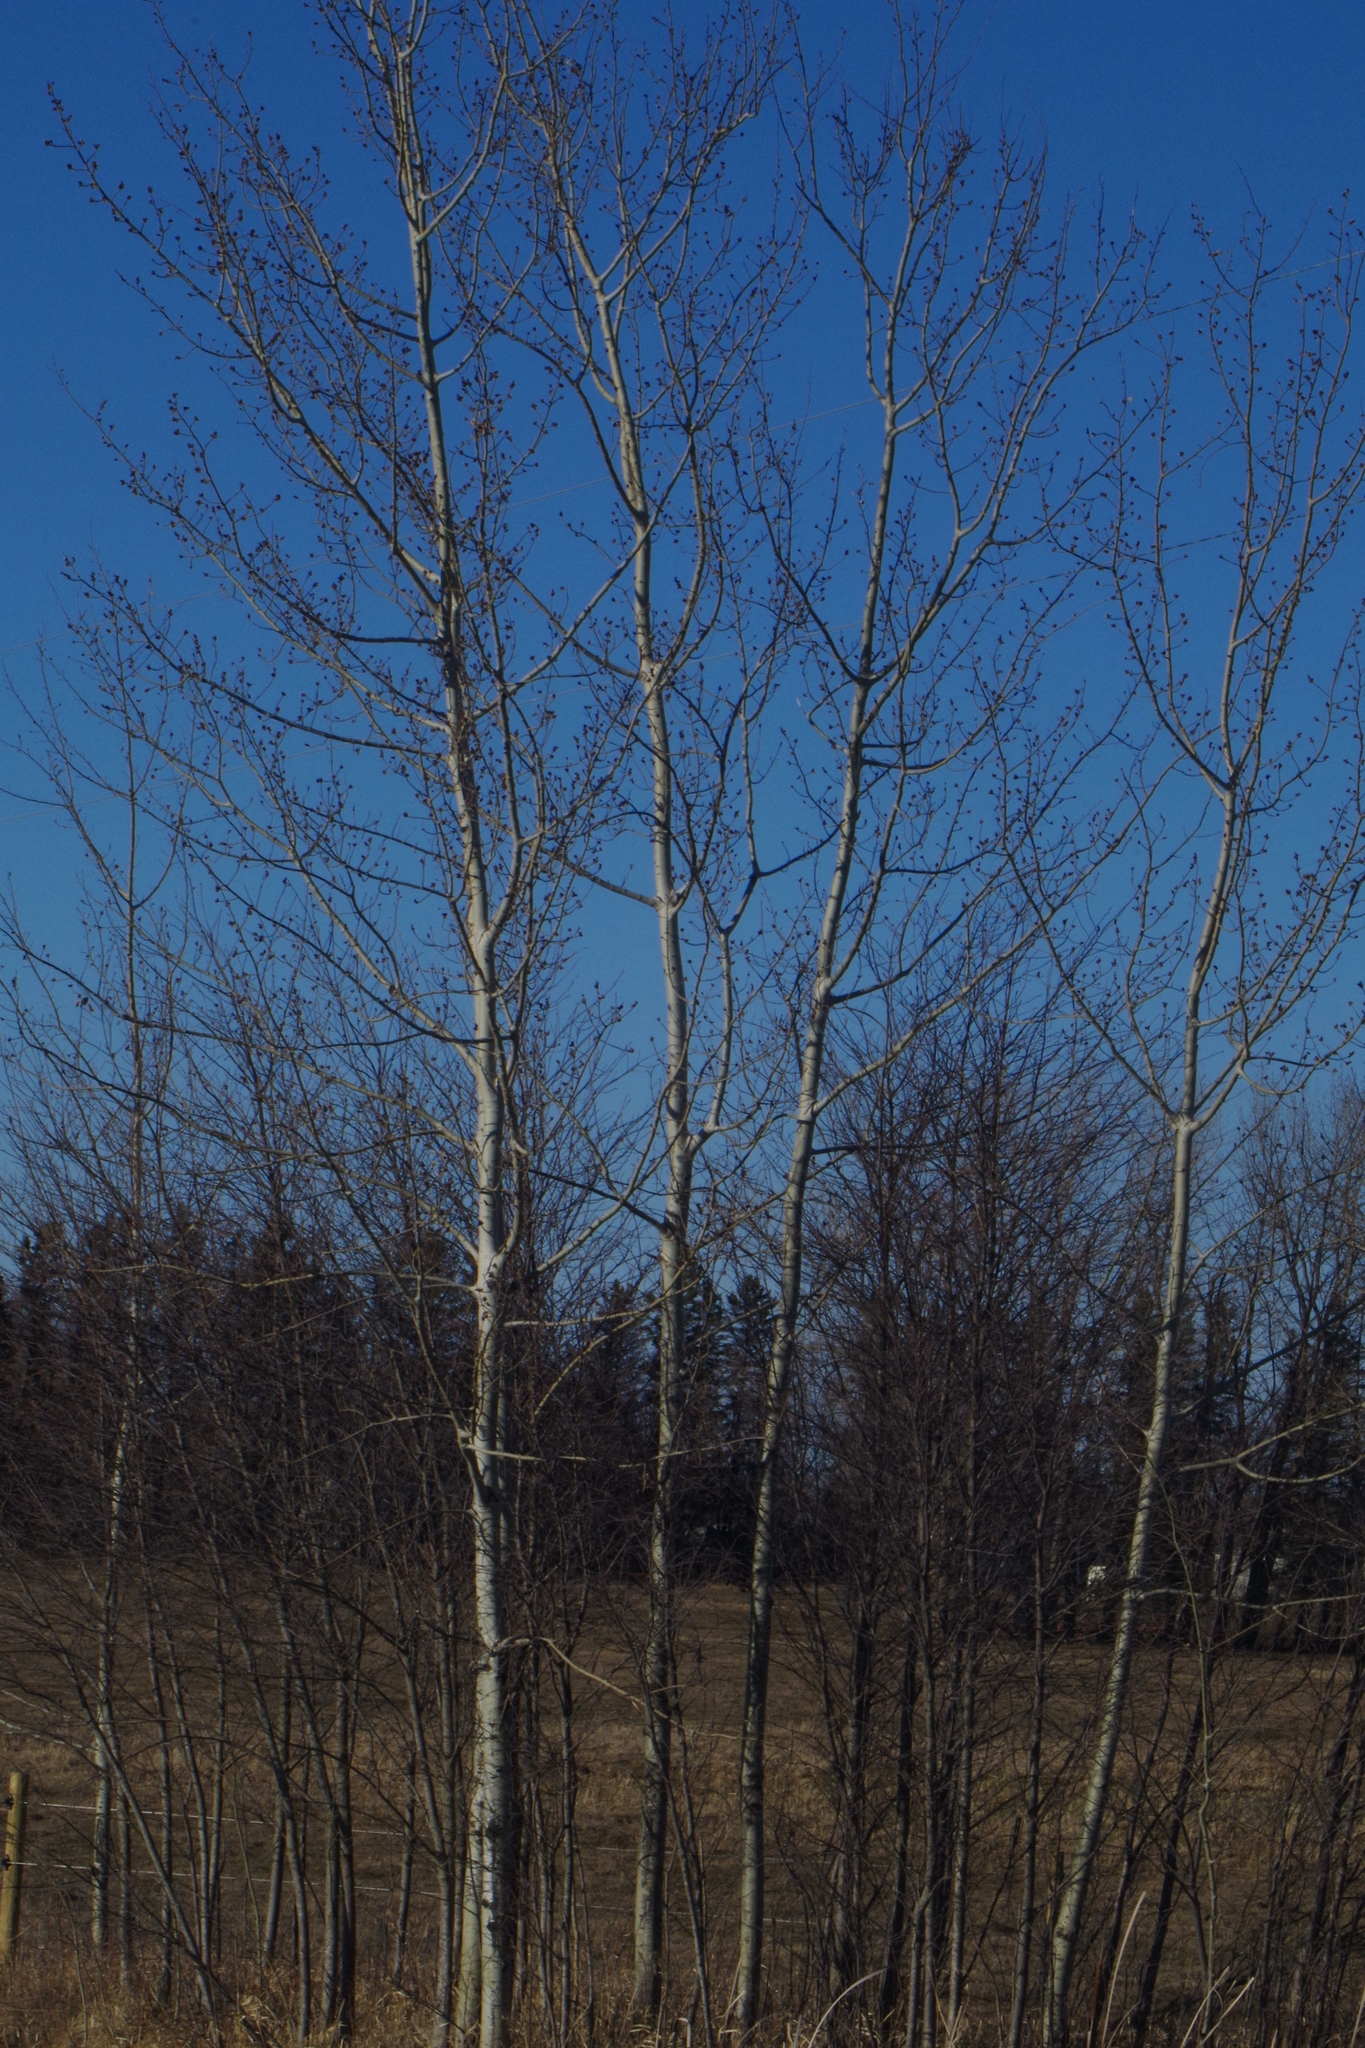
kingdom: Plantae
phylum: Tracheophyta
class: Magnoliopsida
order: Malpighiales
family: Salicaceae
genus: Populus
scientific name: Populus balsamifera
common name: Balsam poplar
